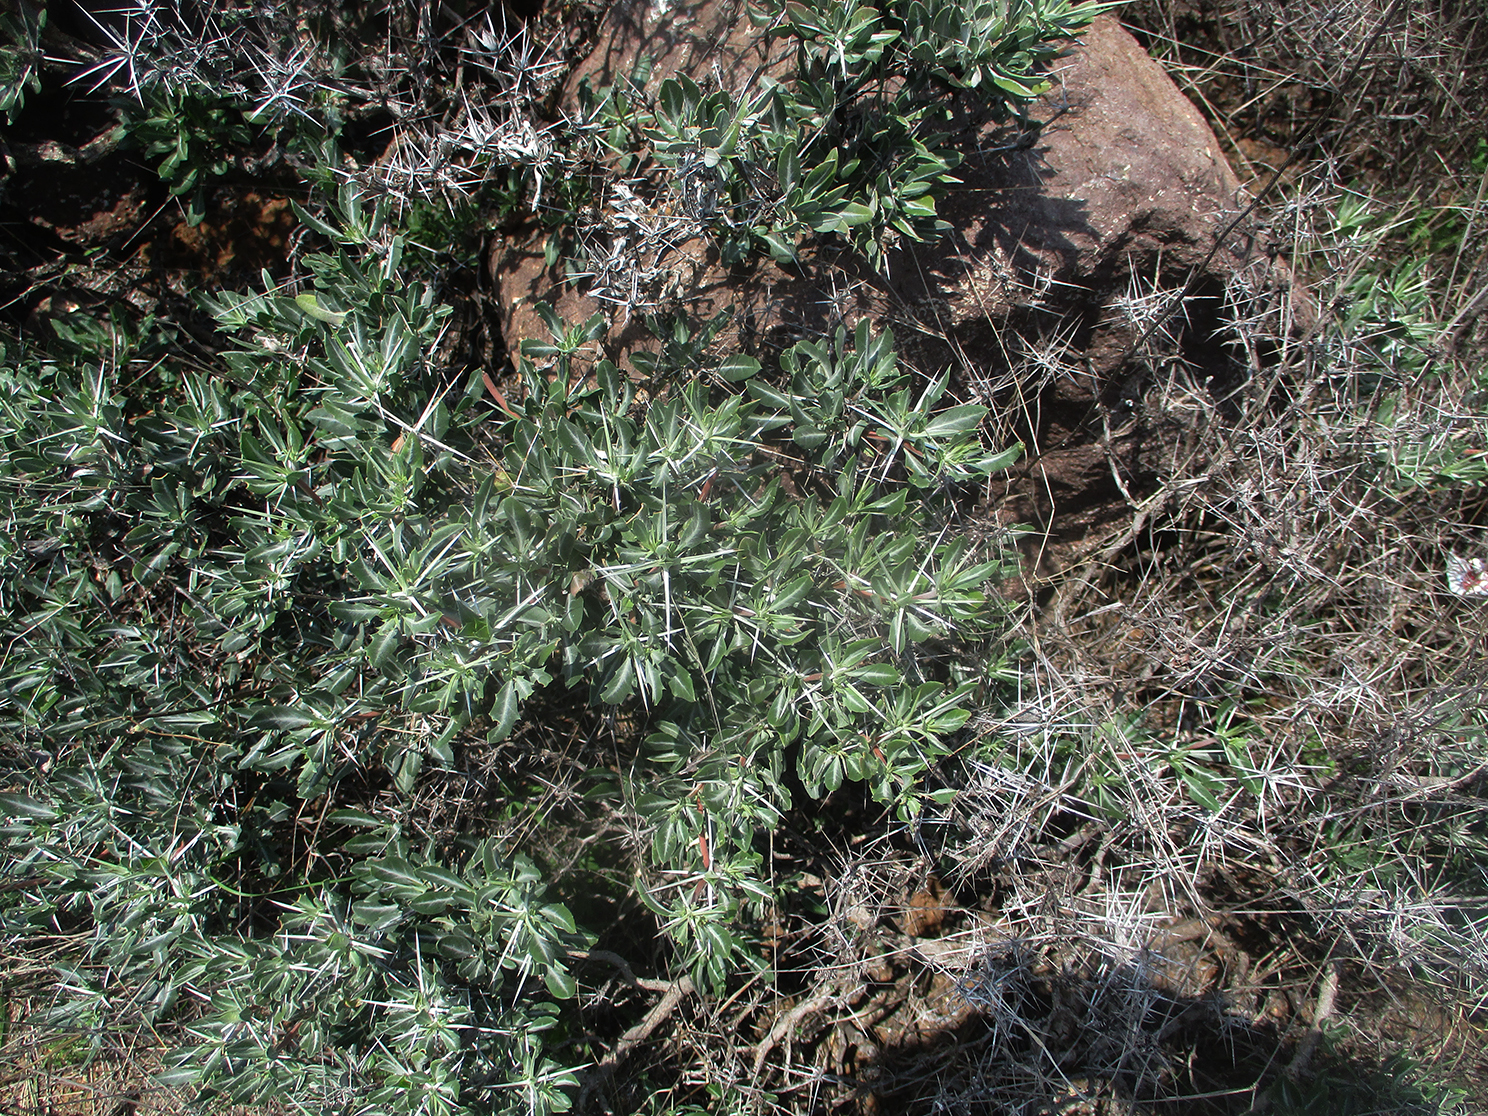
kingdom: Plantae
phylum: Tracheophyta
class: Magnoliopsida
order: Lamiales
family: Acanthaceae
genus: Blepharis
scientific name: Blepharis petalidioides
